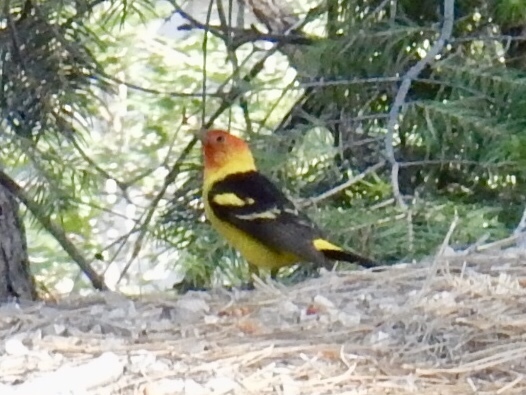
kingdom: Animalia
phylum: Chordata
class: Aves
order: Passeriformes
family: Cardinalidae
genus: Piranga
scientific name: Piranga ludoviciana
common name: Western tanager
